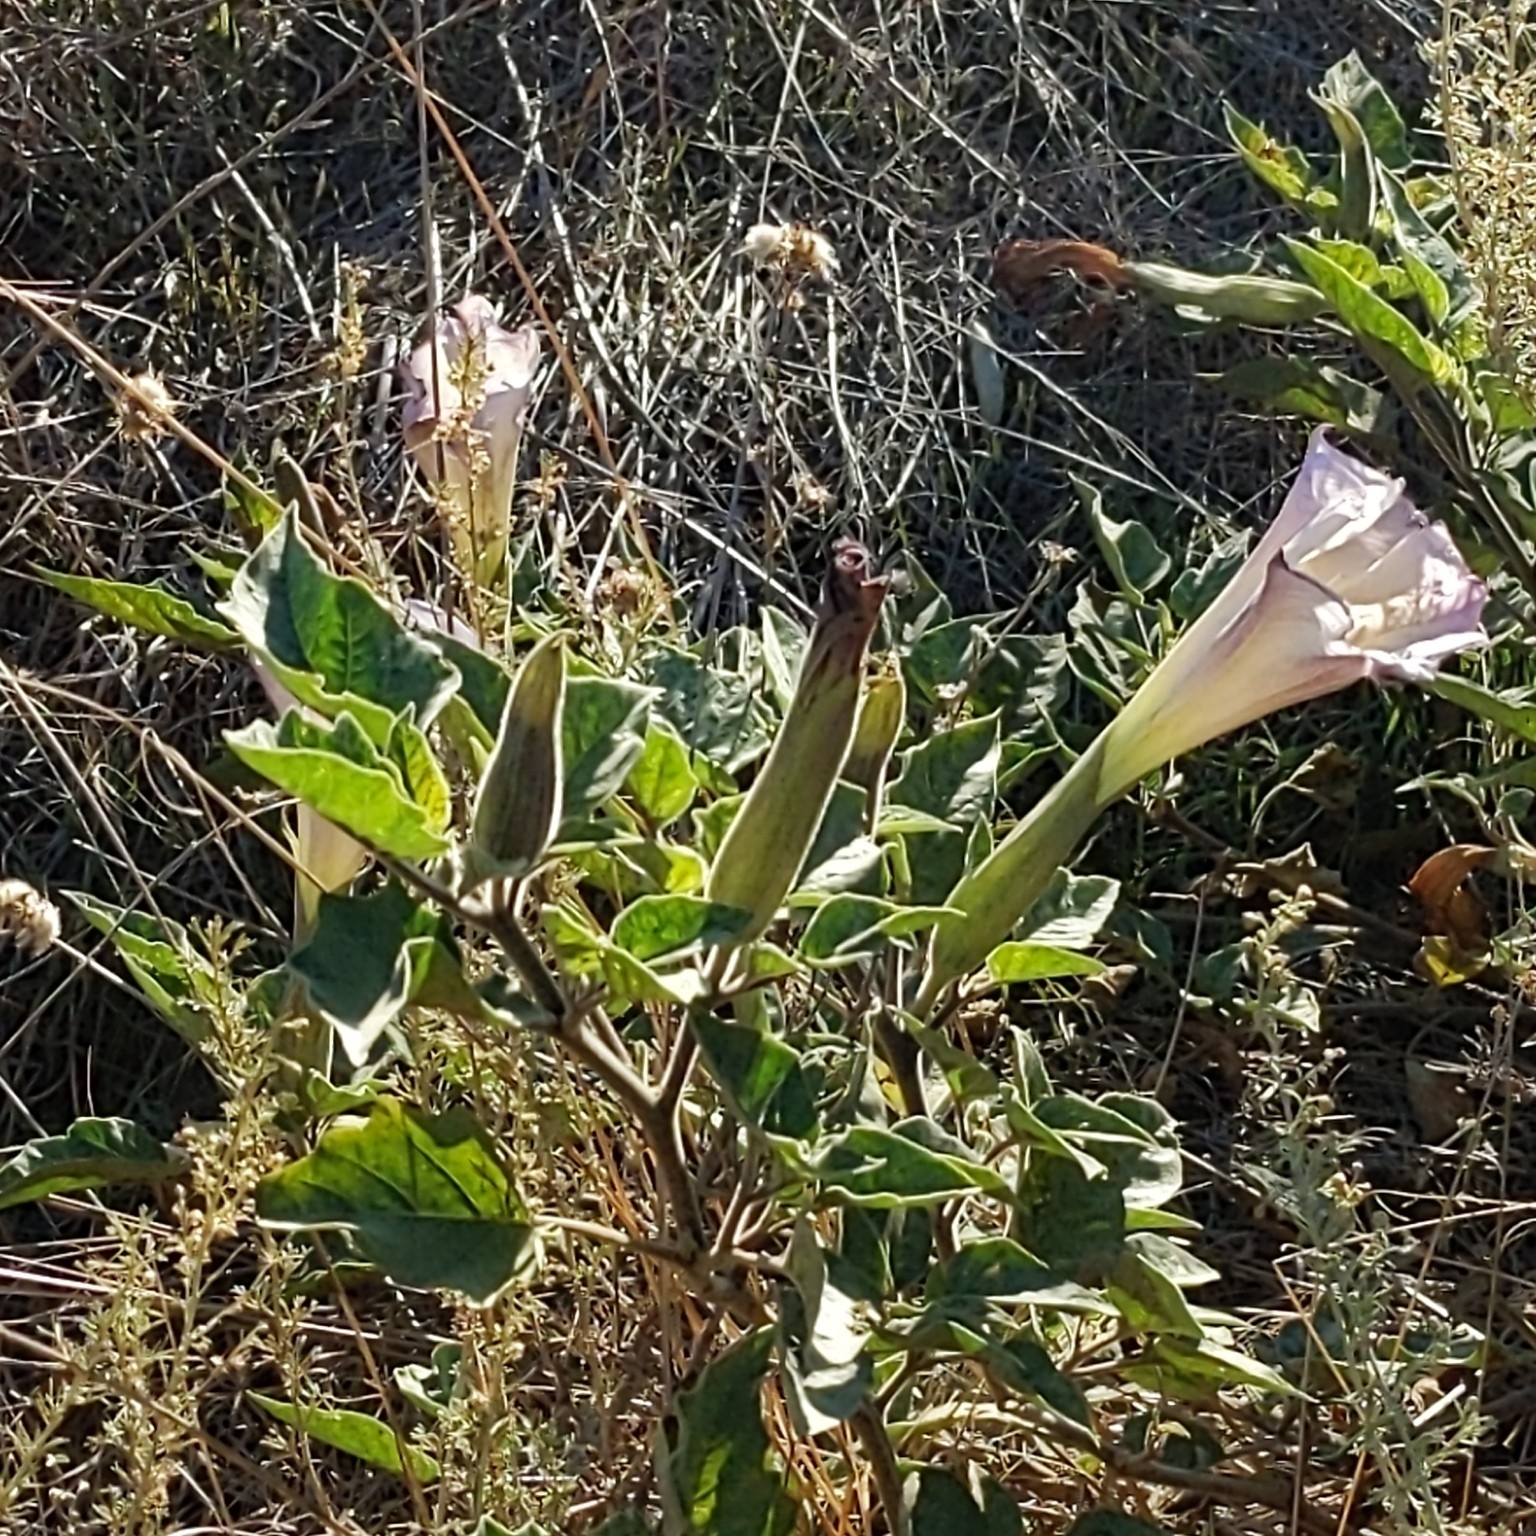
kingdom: Plantae
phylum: Tracheophyta
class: Magnoliopsida
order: Solanales
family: Solanaceae
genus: Datura
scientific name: Datura wrightii
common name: Sacred thorn-apple
